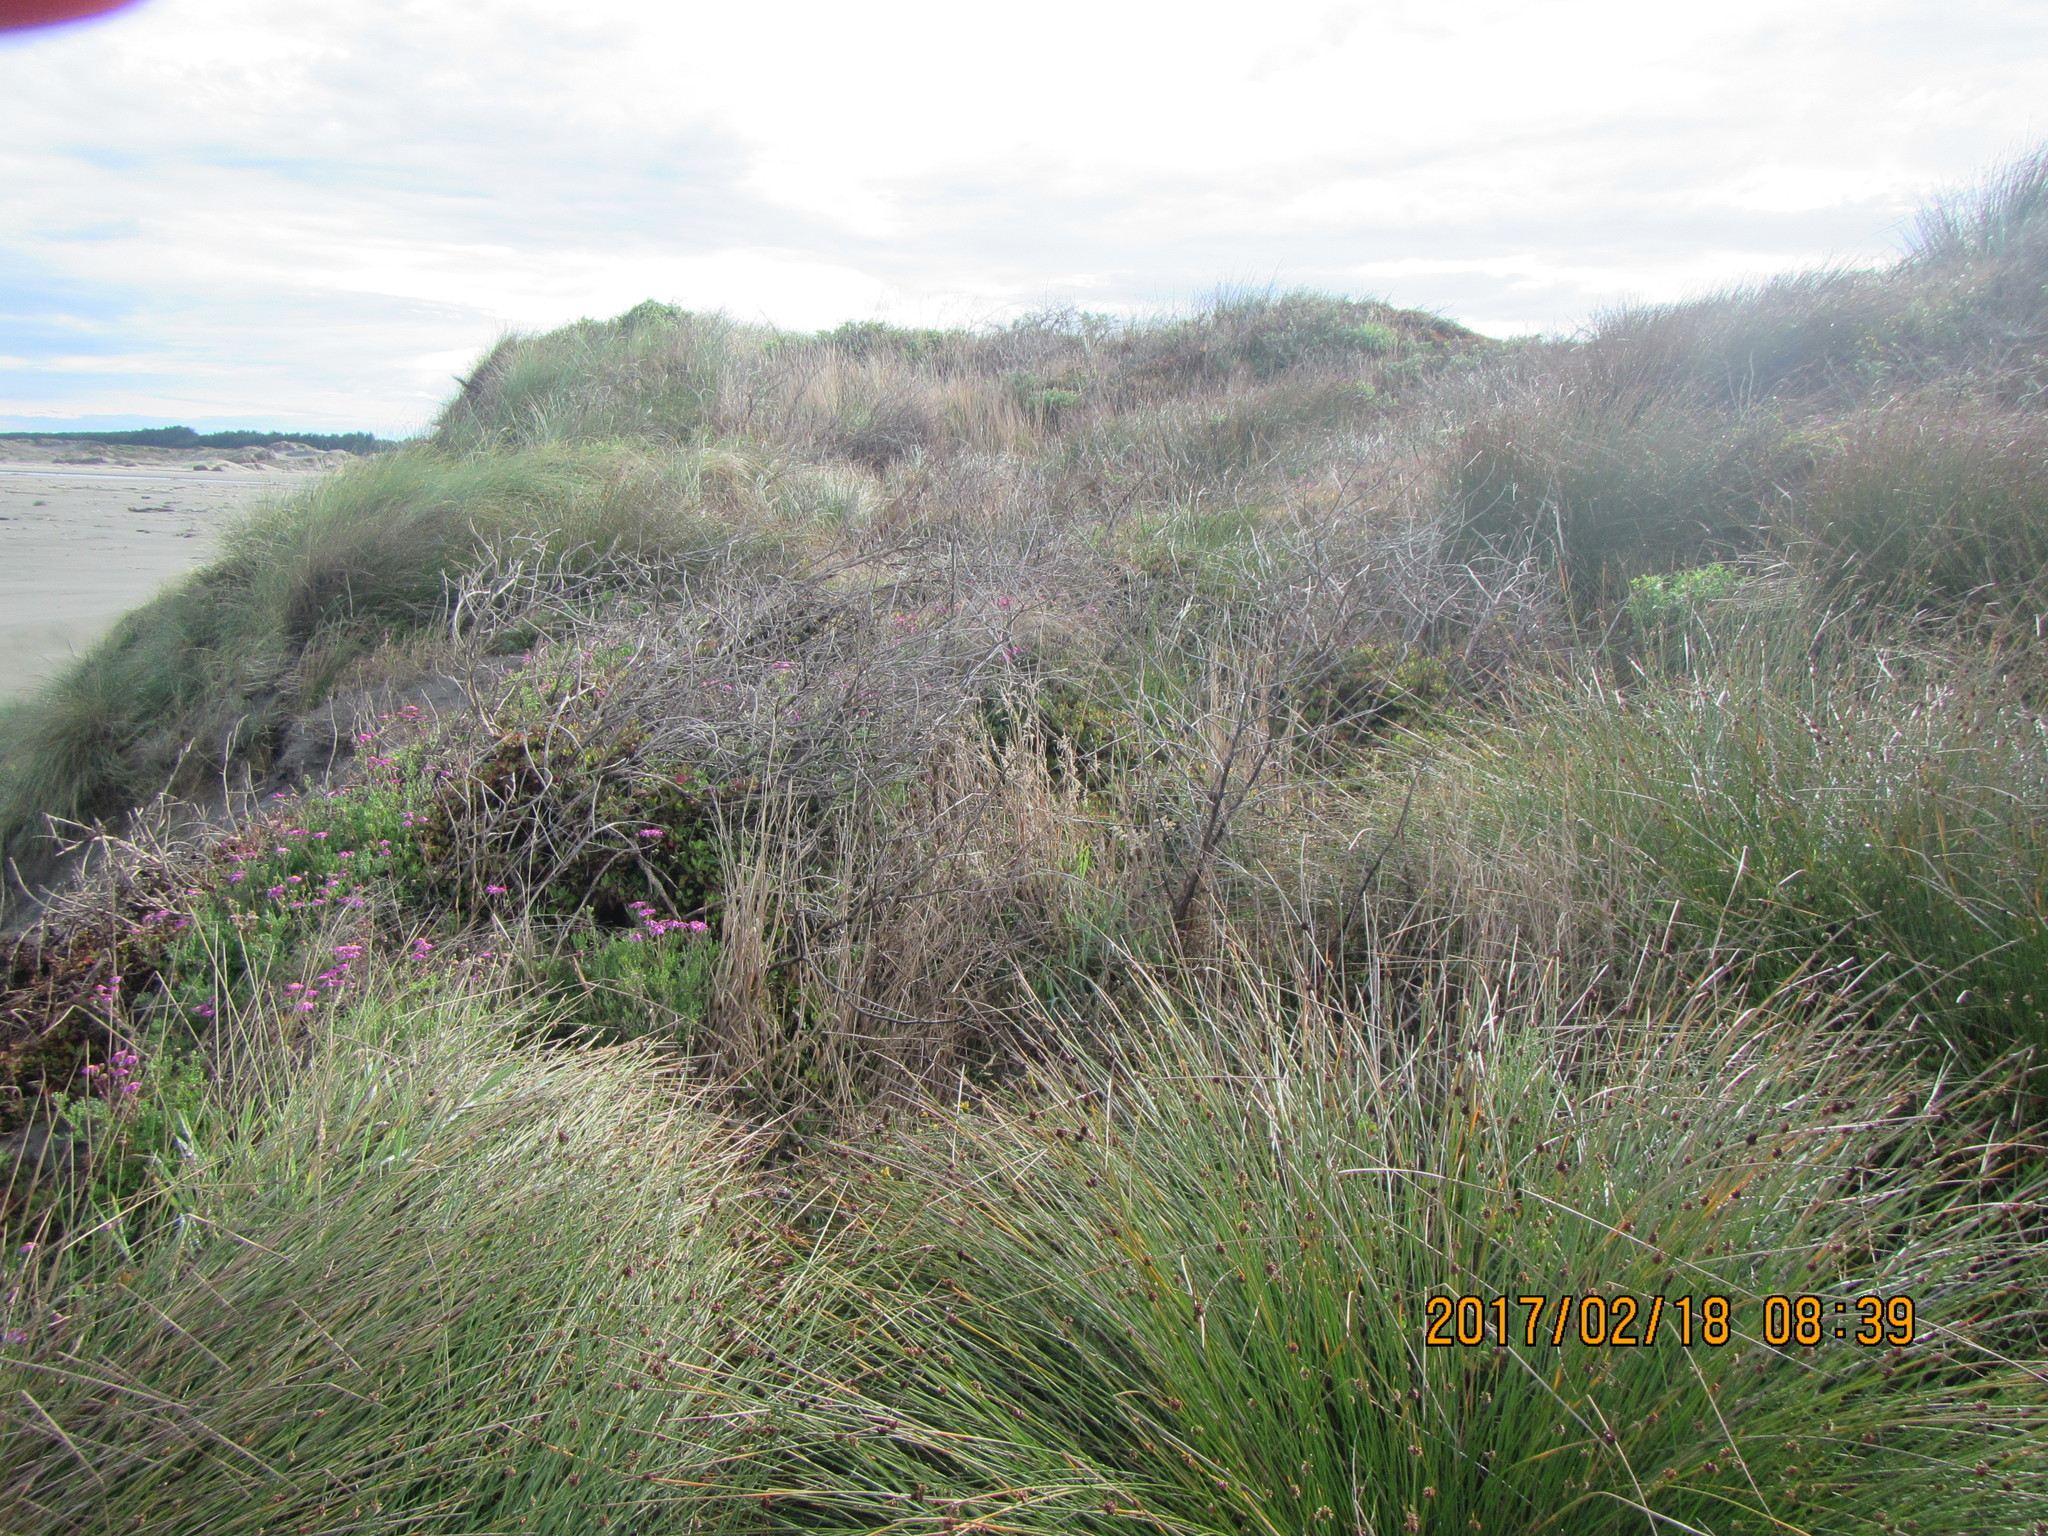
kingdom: Plantae
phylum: Tracheophyta
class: Liliopsida
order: Poales
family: Cyperaceae
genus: Ficinia
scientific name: Ficinia nodosa
